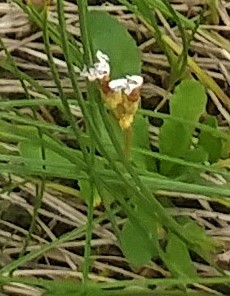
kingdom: Plantae
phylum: Tracheophyta
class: Magnoliopsida
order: Ericales
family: Primulaceae
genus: Primula
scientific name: Primula mistassinica
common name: Bird's-eye primrose
